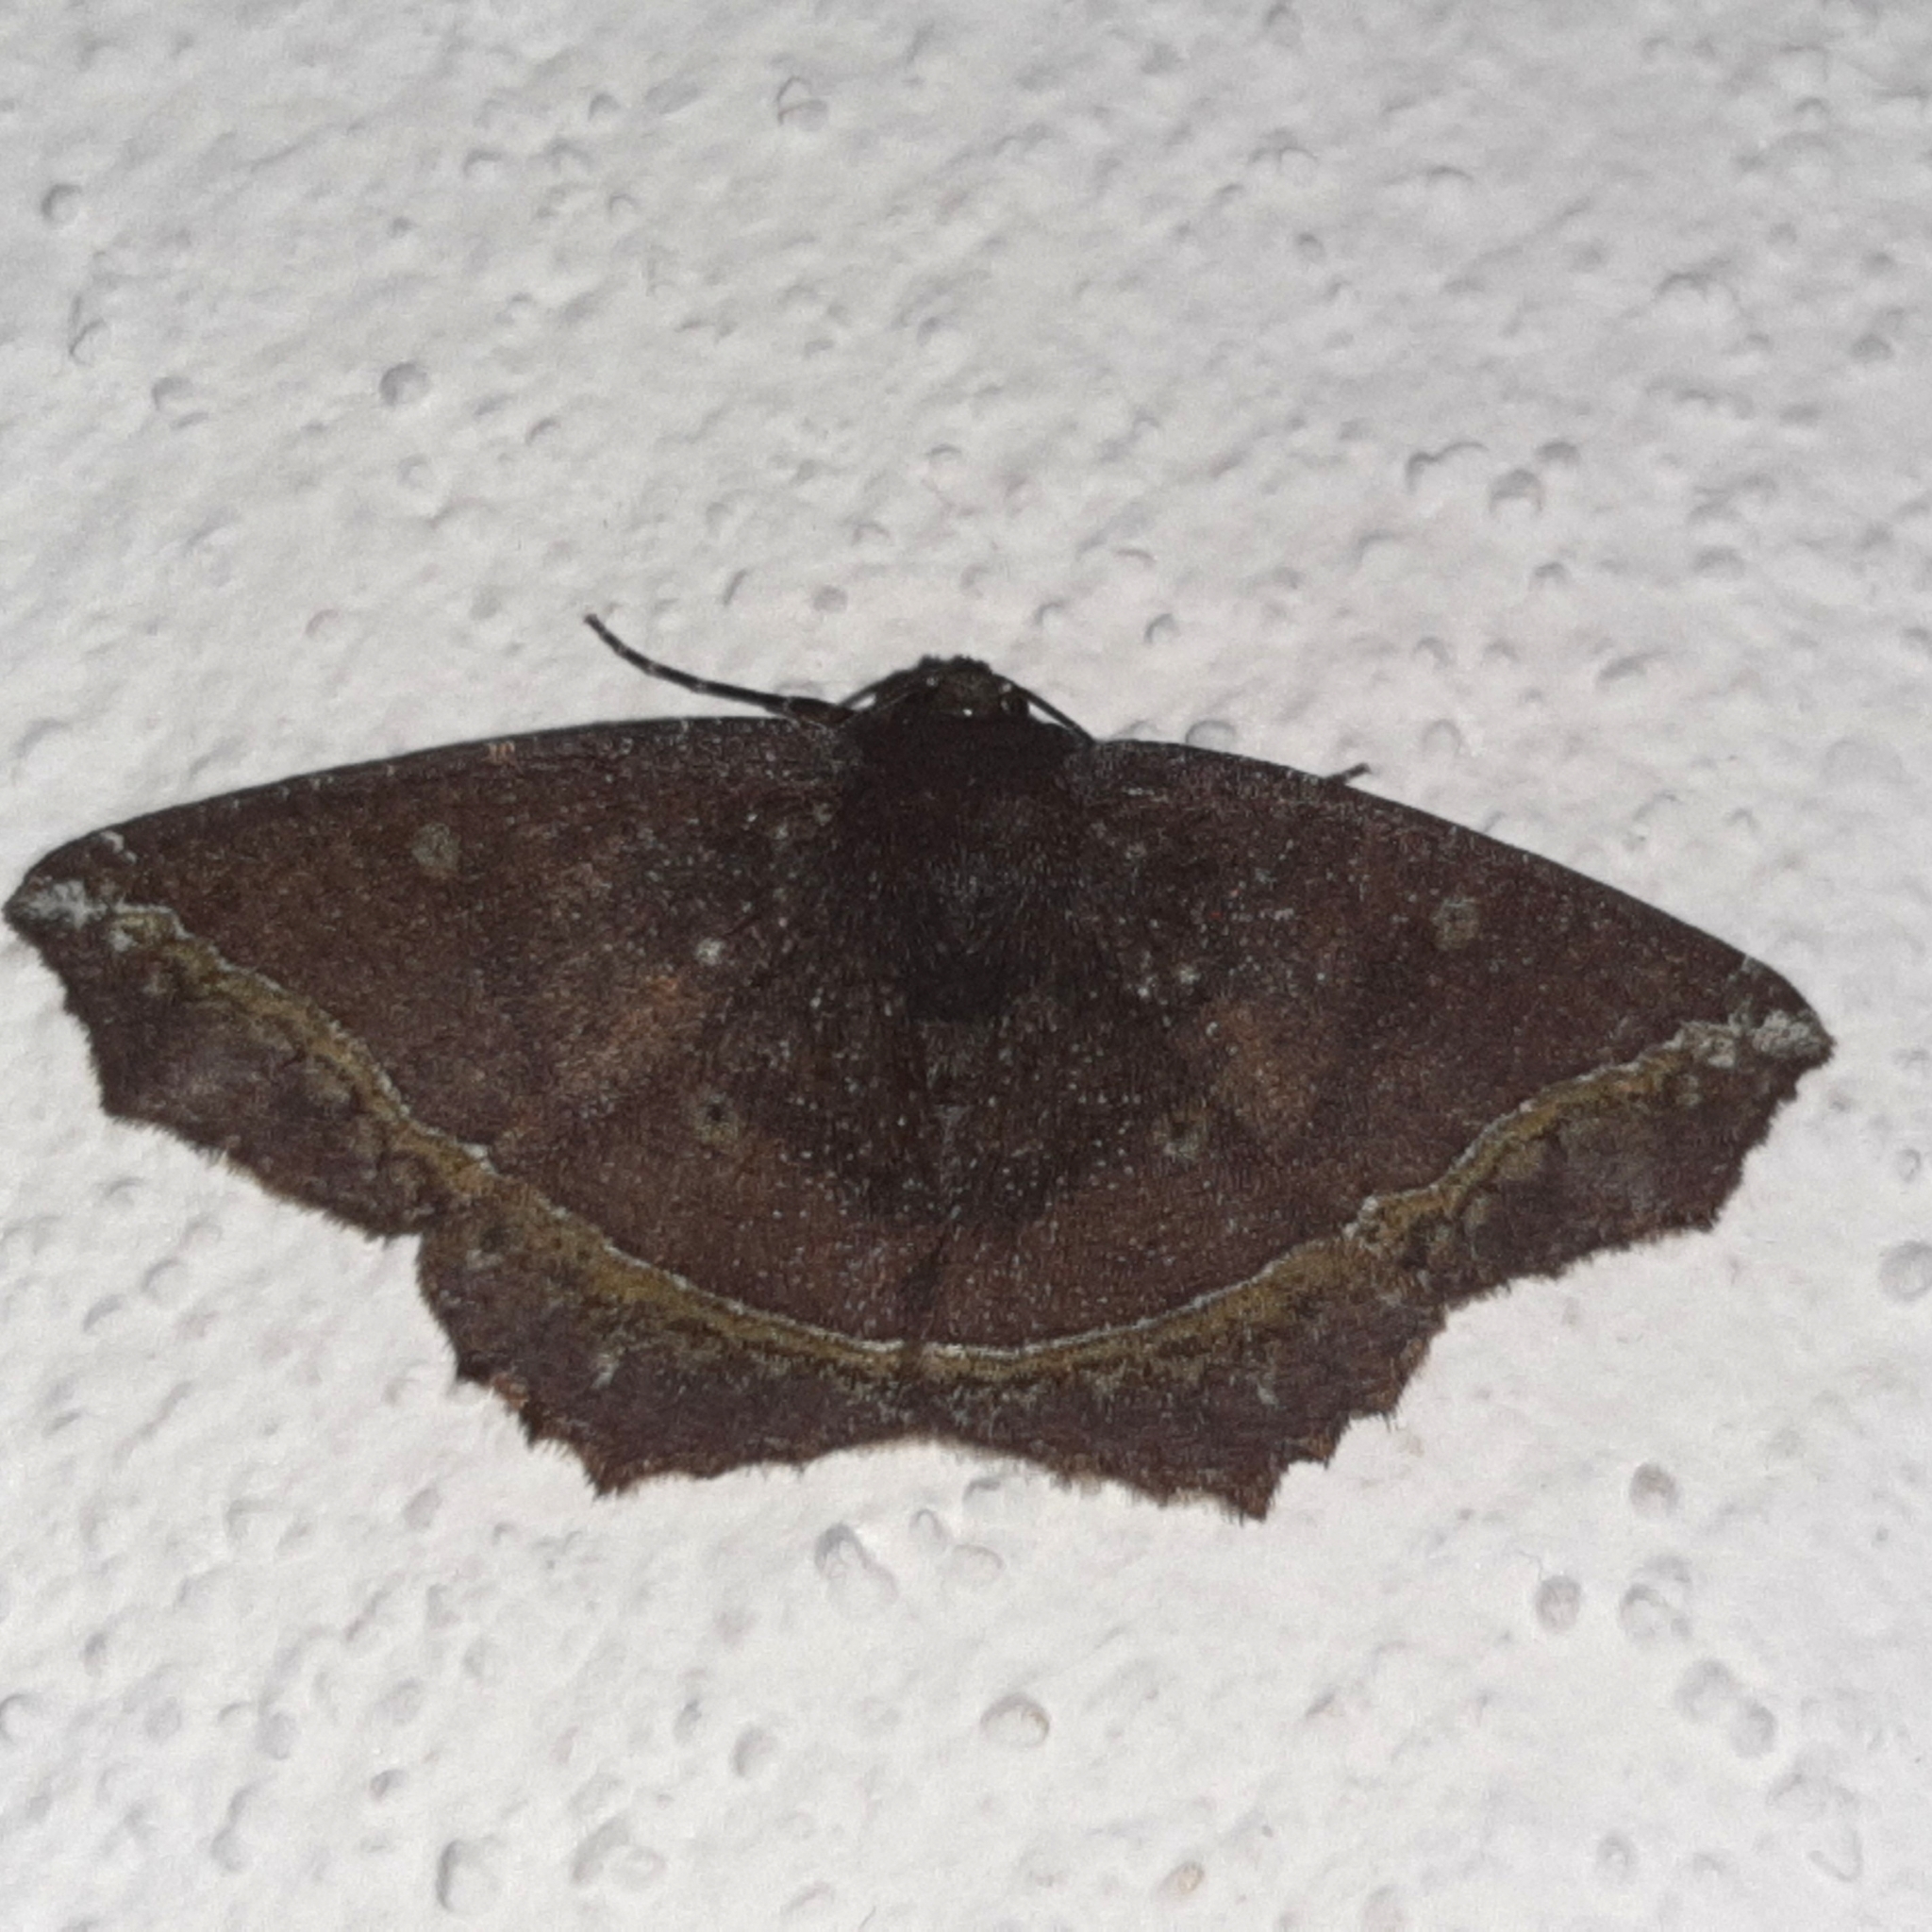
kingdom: Animalia
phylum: Arthropoda
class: Insecta
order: Lepidoptera
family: Geometridae
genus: Synnomos
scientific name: Synnomos firmamentaria
